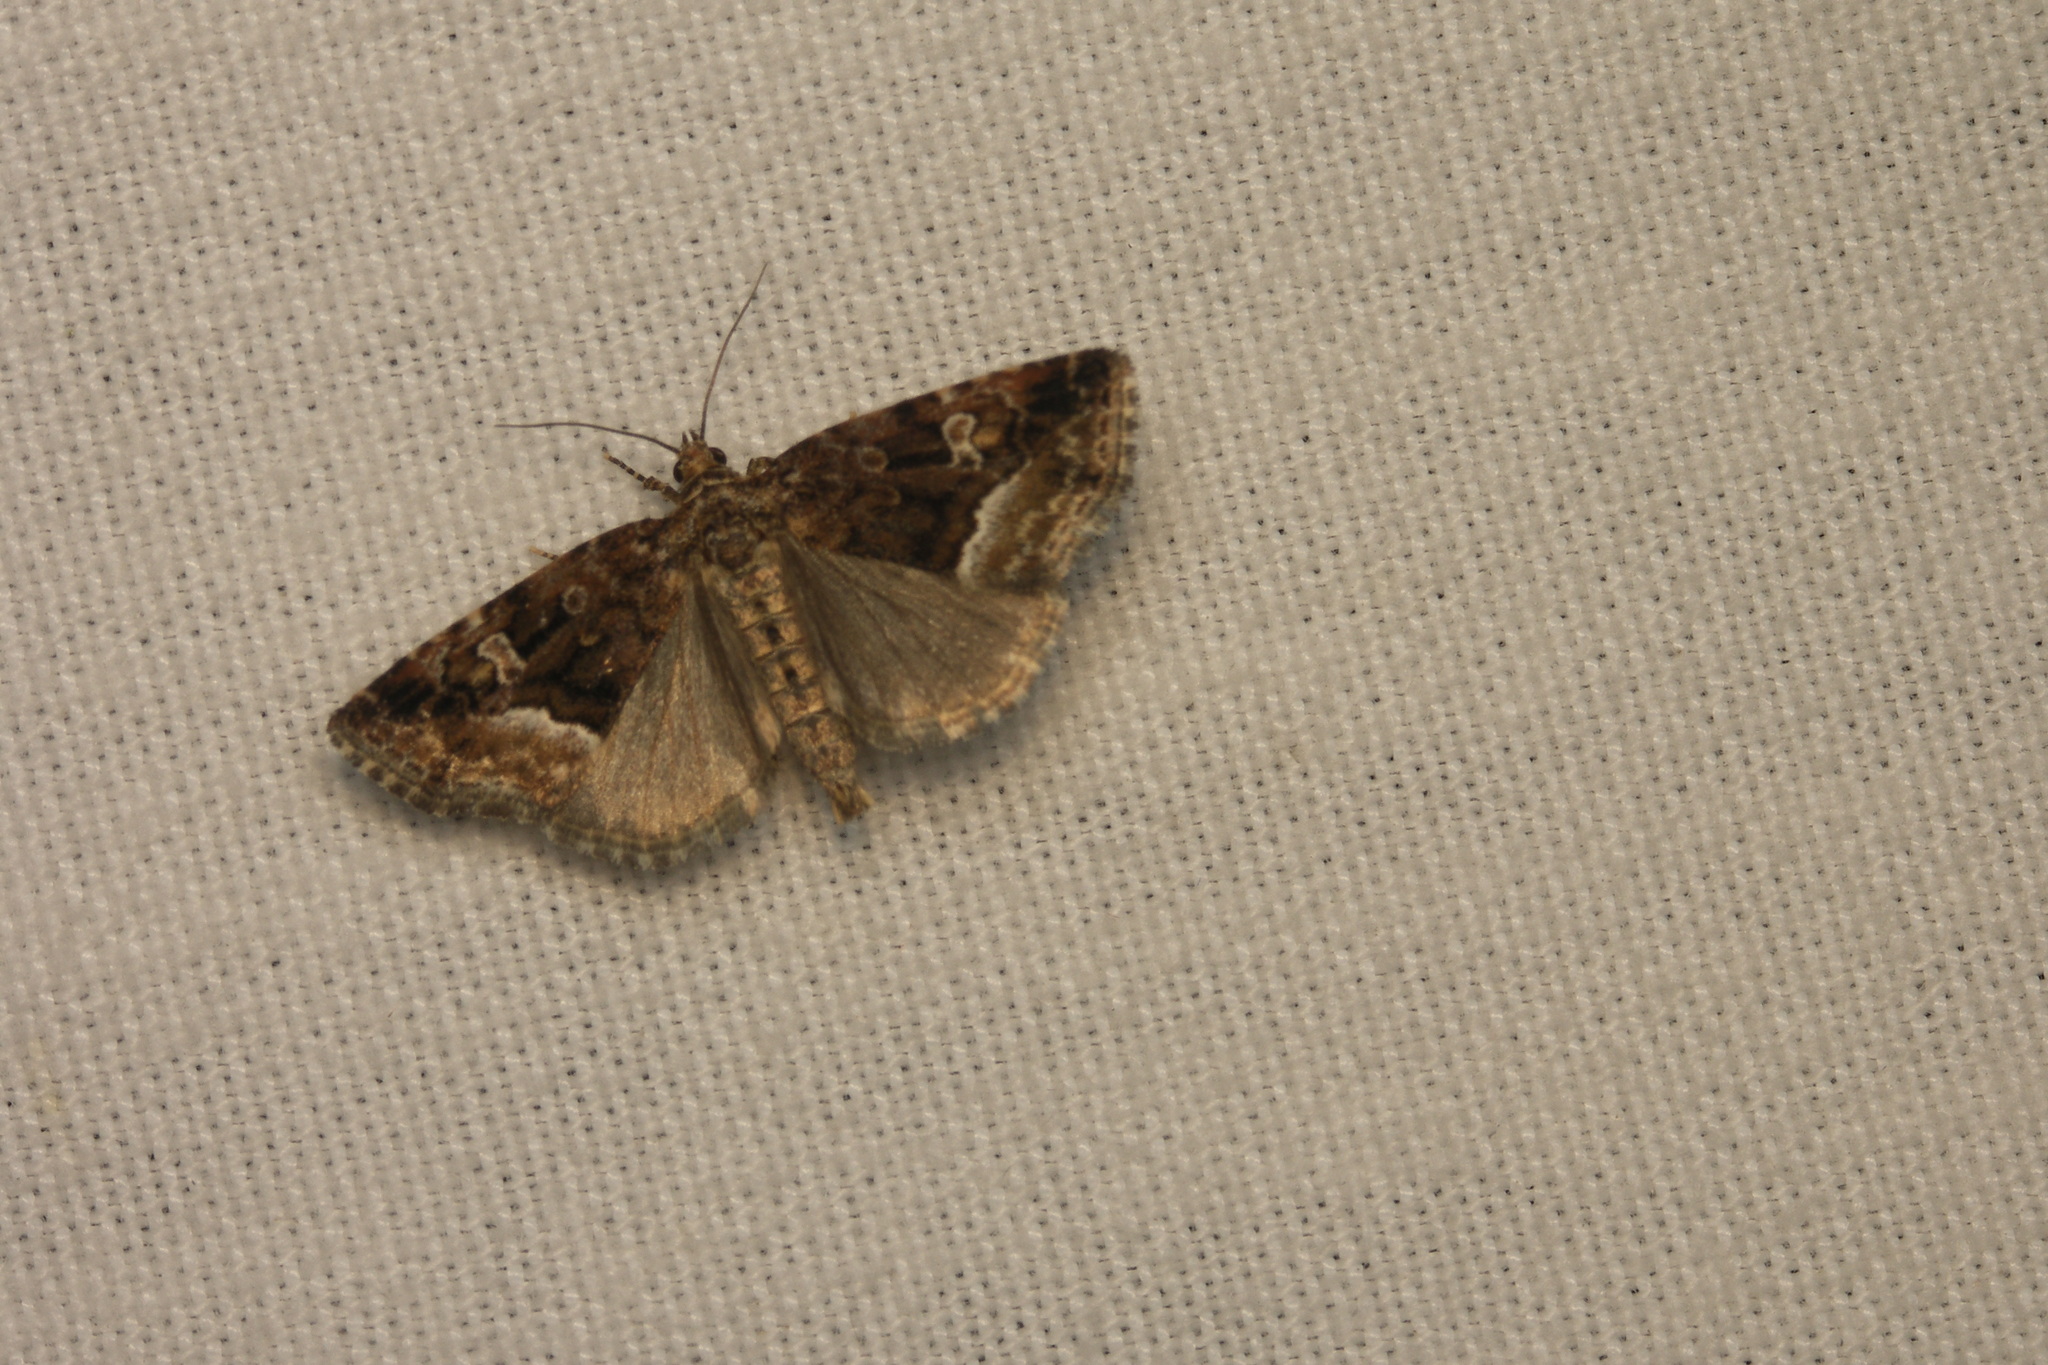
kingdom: Animalia
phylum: Arthropoda
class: Insecta
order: Lepidoptera
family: Noctuidae
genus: Deltote
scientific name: Deltote pygarga
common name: Marbled white spot
